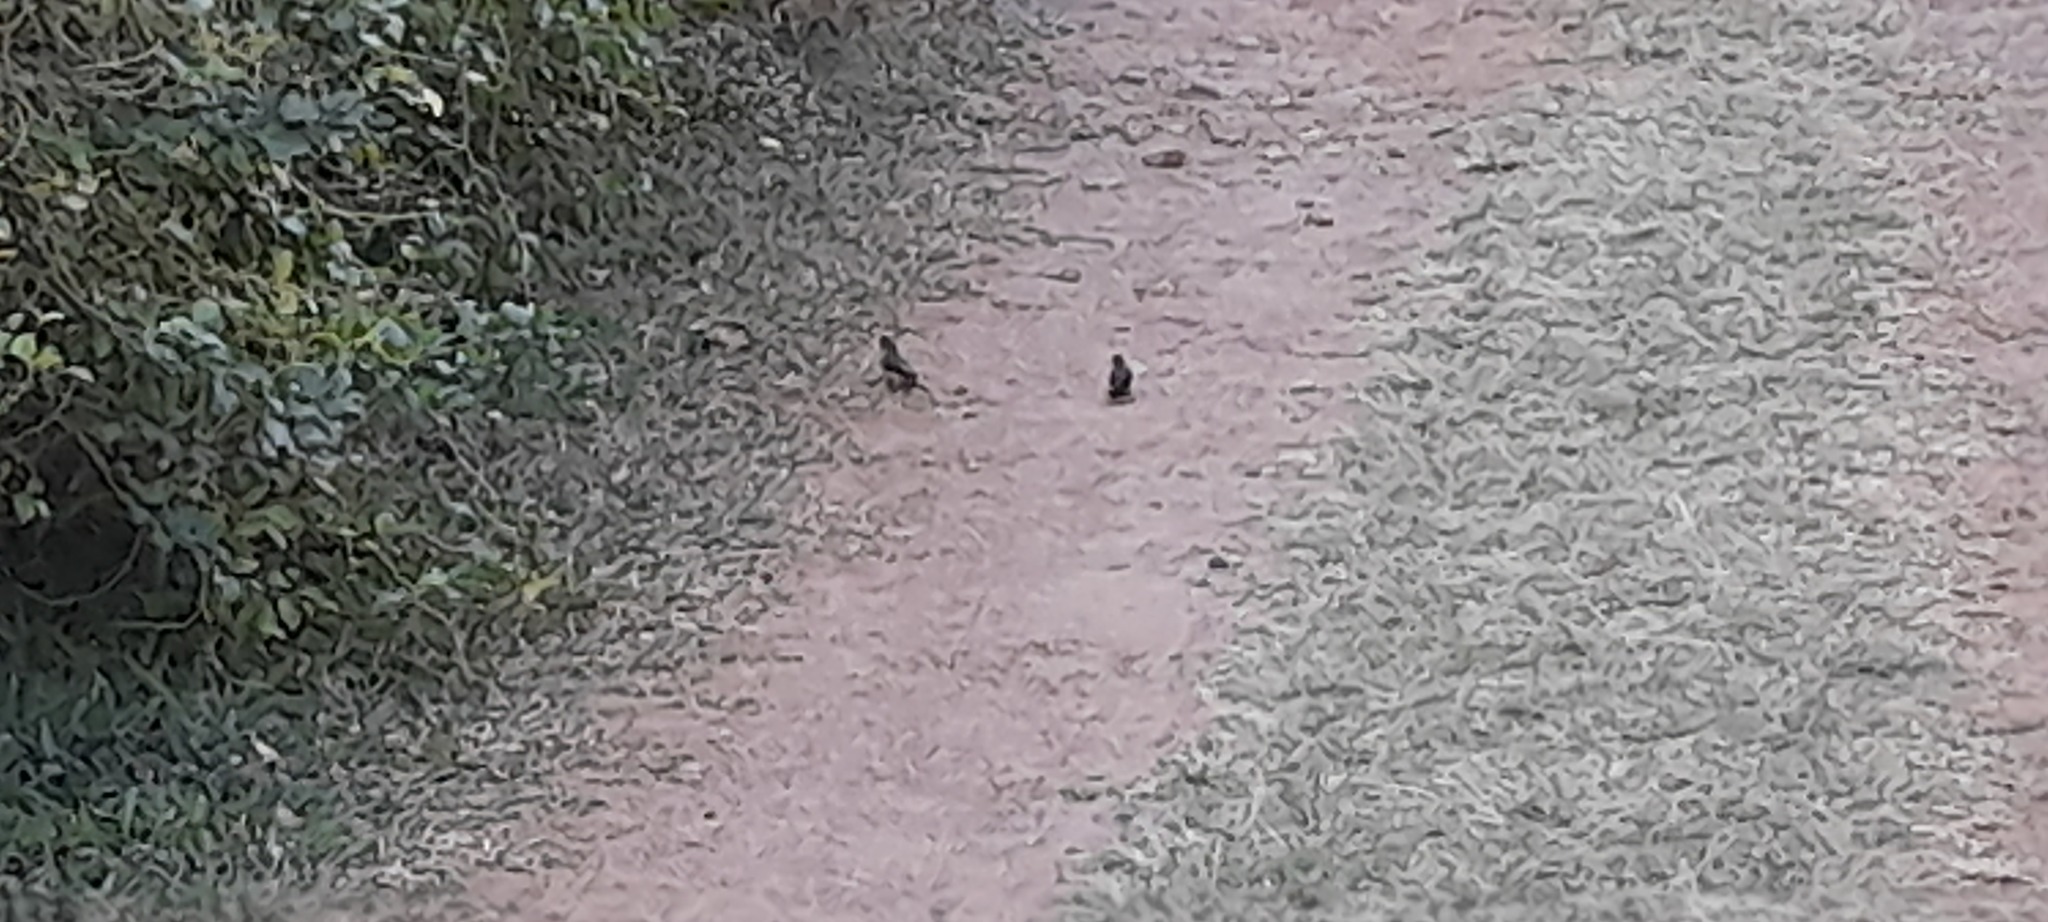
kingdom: Animalia
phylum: Chordata
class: Aves
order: Passeriformes
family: Estrildidae
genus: Lonchura
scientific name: Lonchura kelaarti
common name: Black-throated munia
